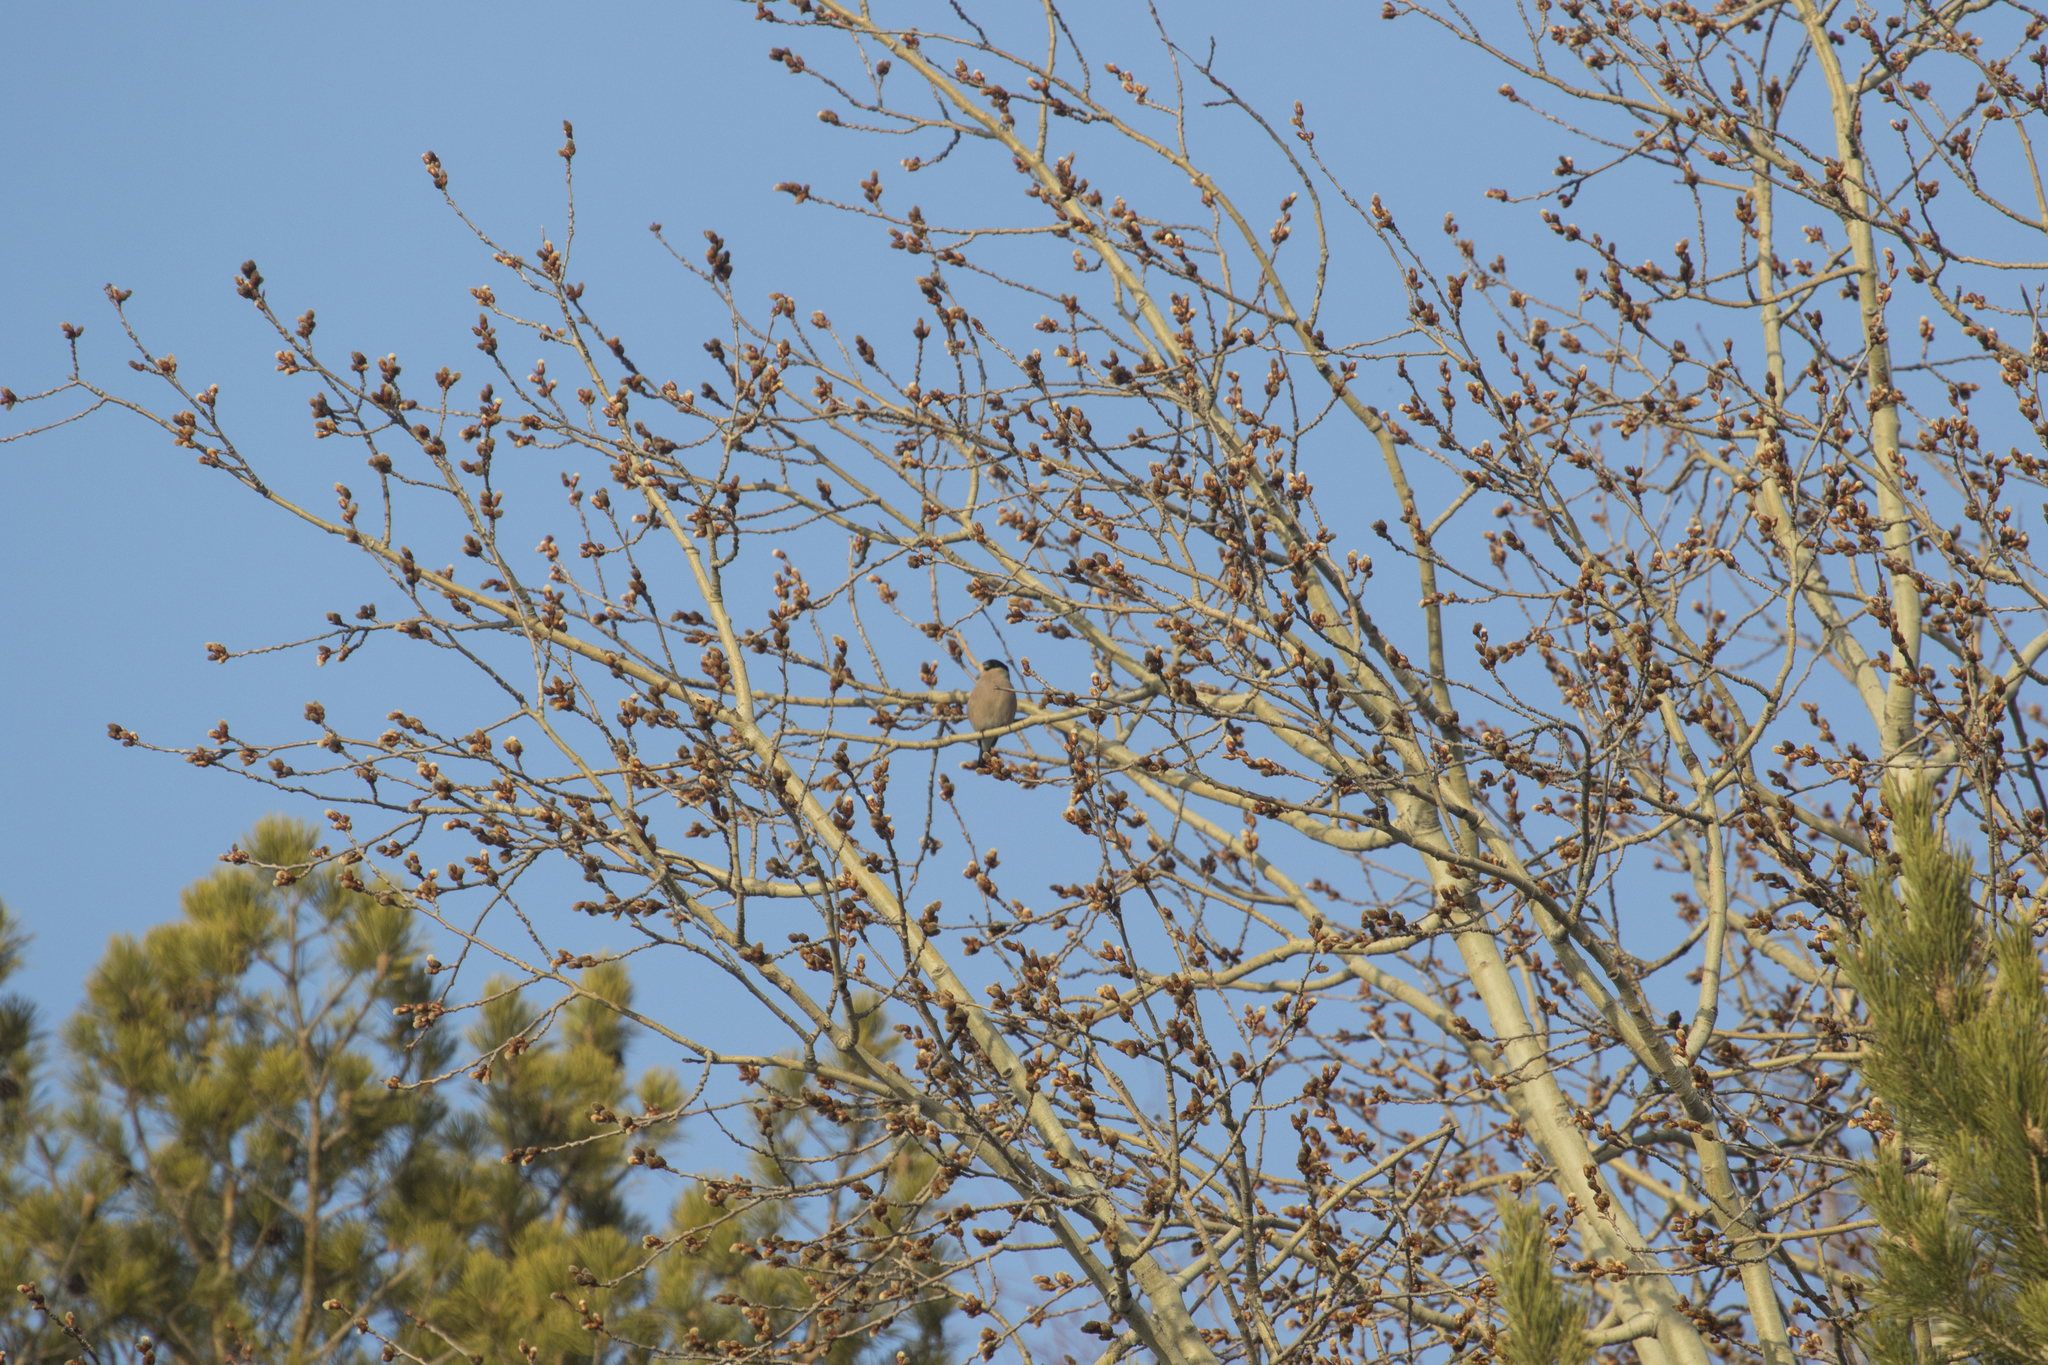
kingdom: Animalia
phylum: Chordata
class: Aves
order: Passeriformes
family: Fringillidae
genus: Pyrrhula
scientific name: Pyrrhula pyrrhula
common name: Eurasian bullfinch
